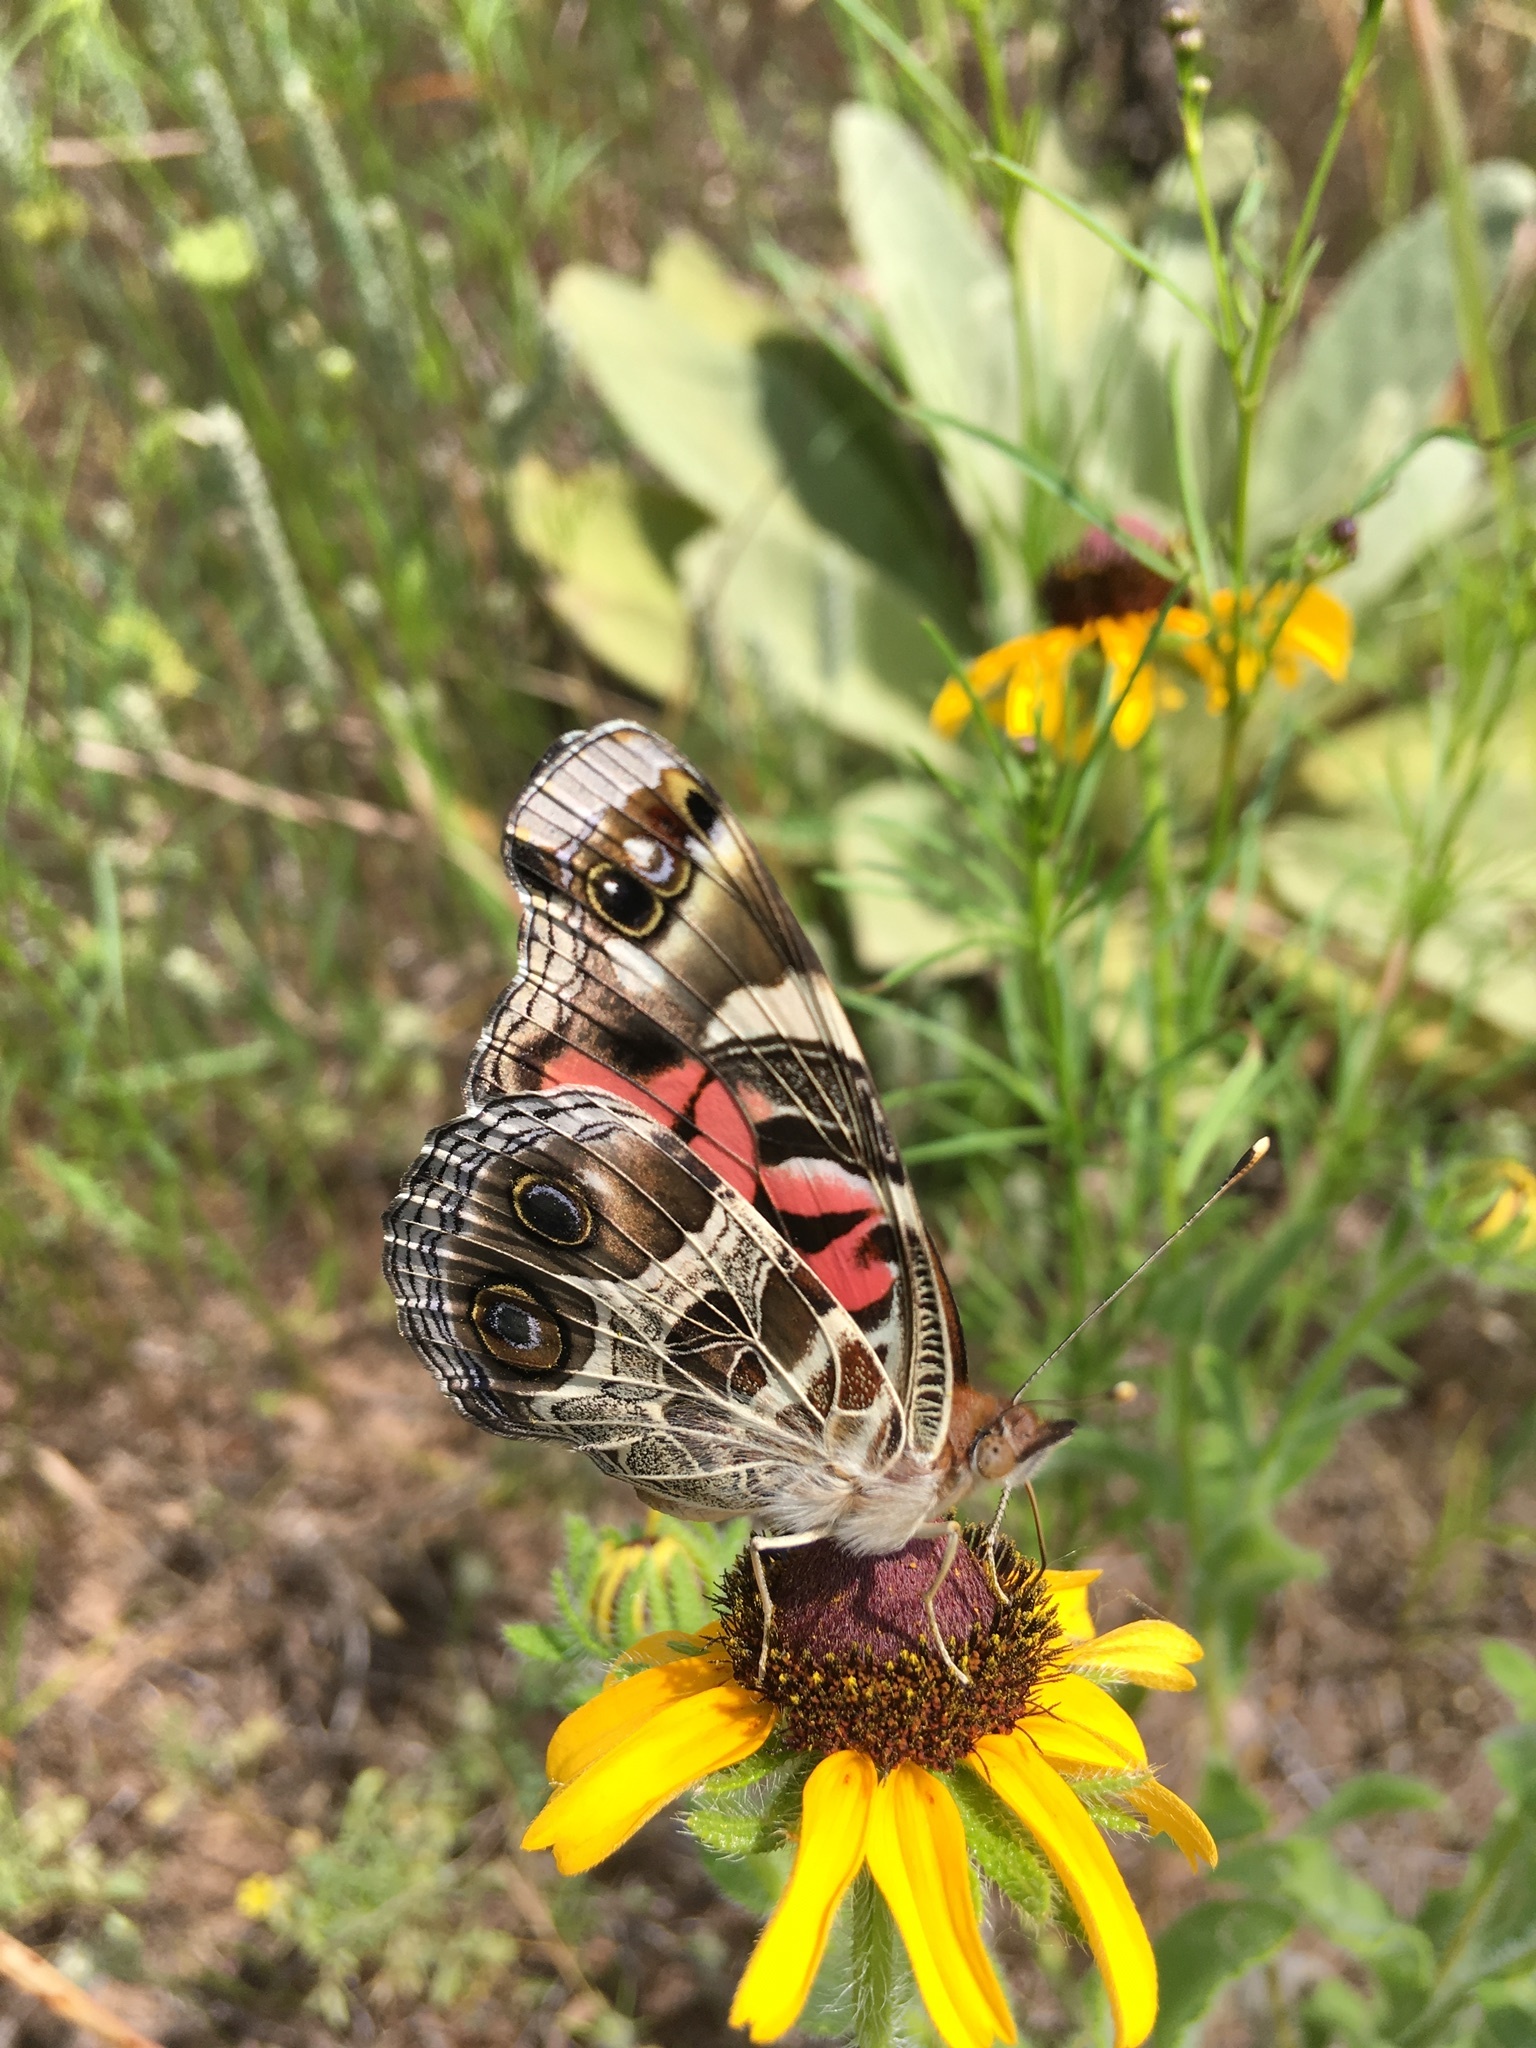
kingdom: Animalia
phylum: Arthropoda
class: Insecta
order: Lepidoptera
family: Nymphalidae
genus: Vanessa
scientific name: Vanessa virginiensis
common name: American lady
